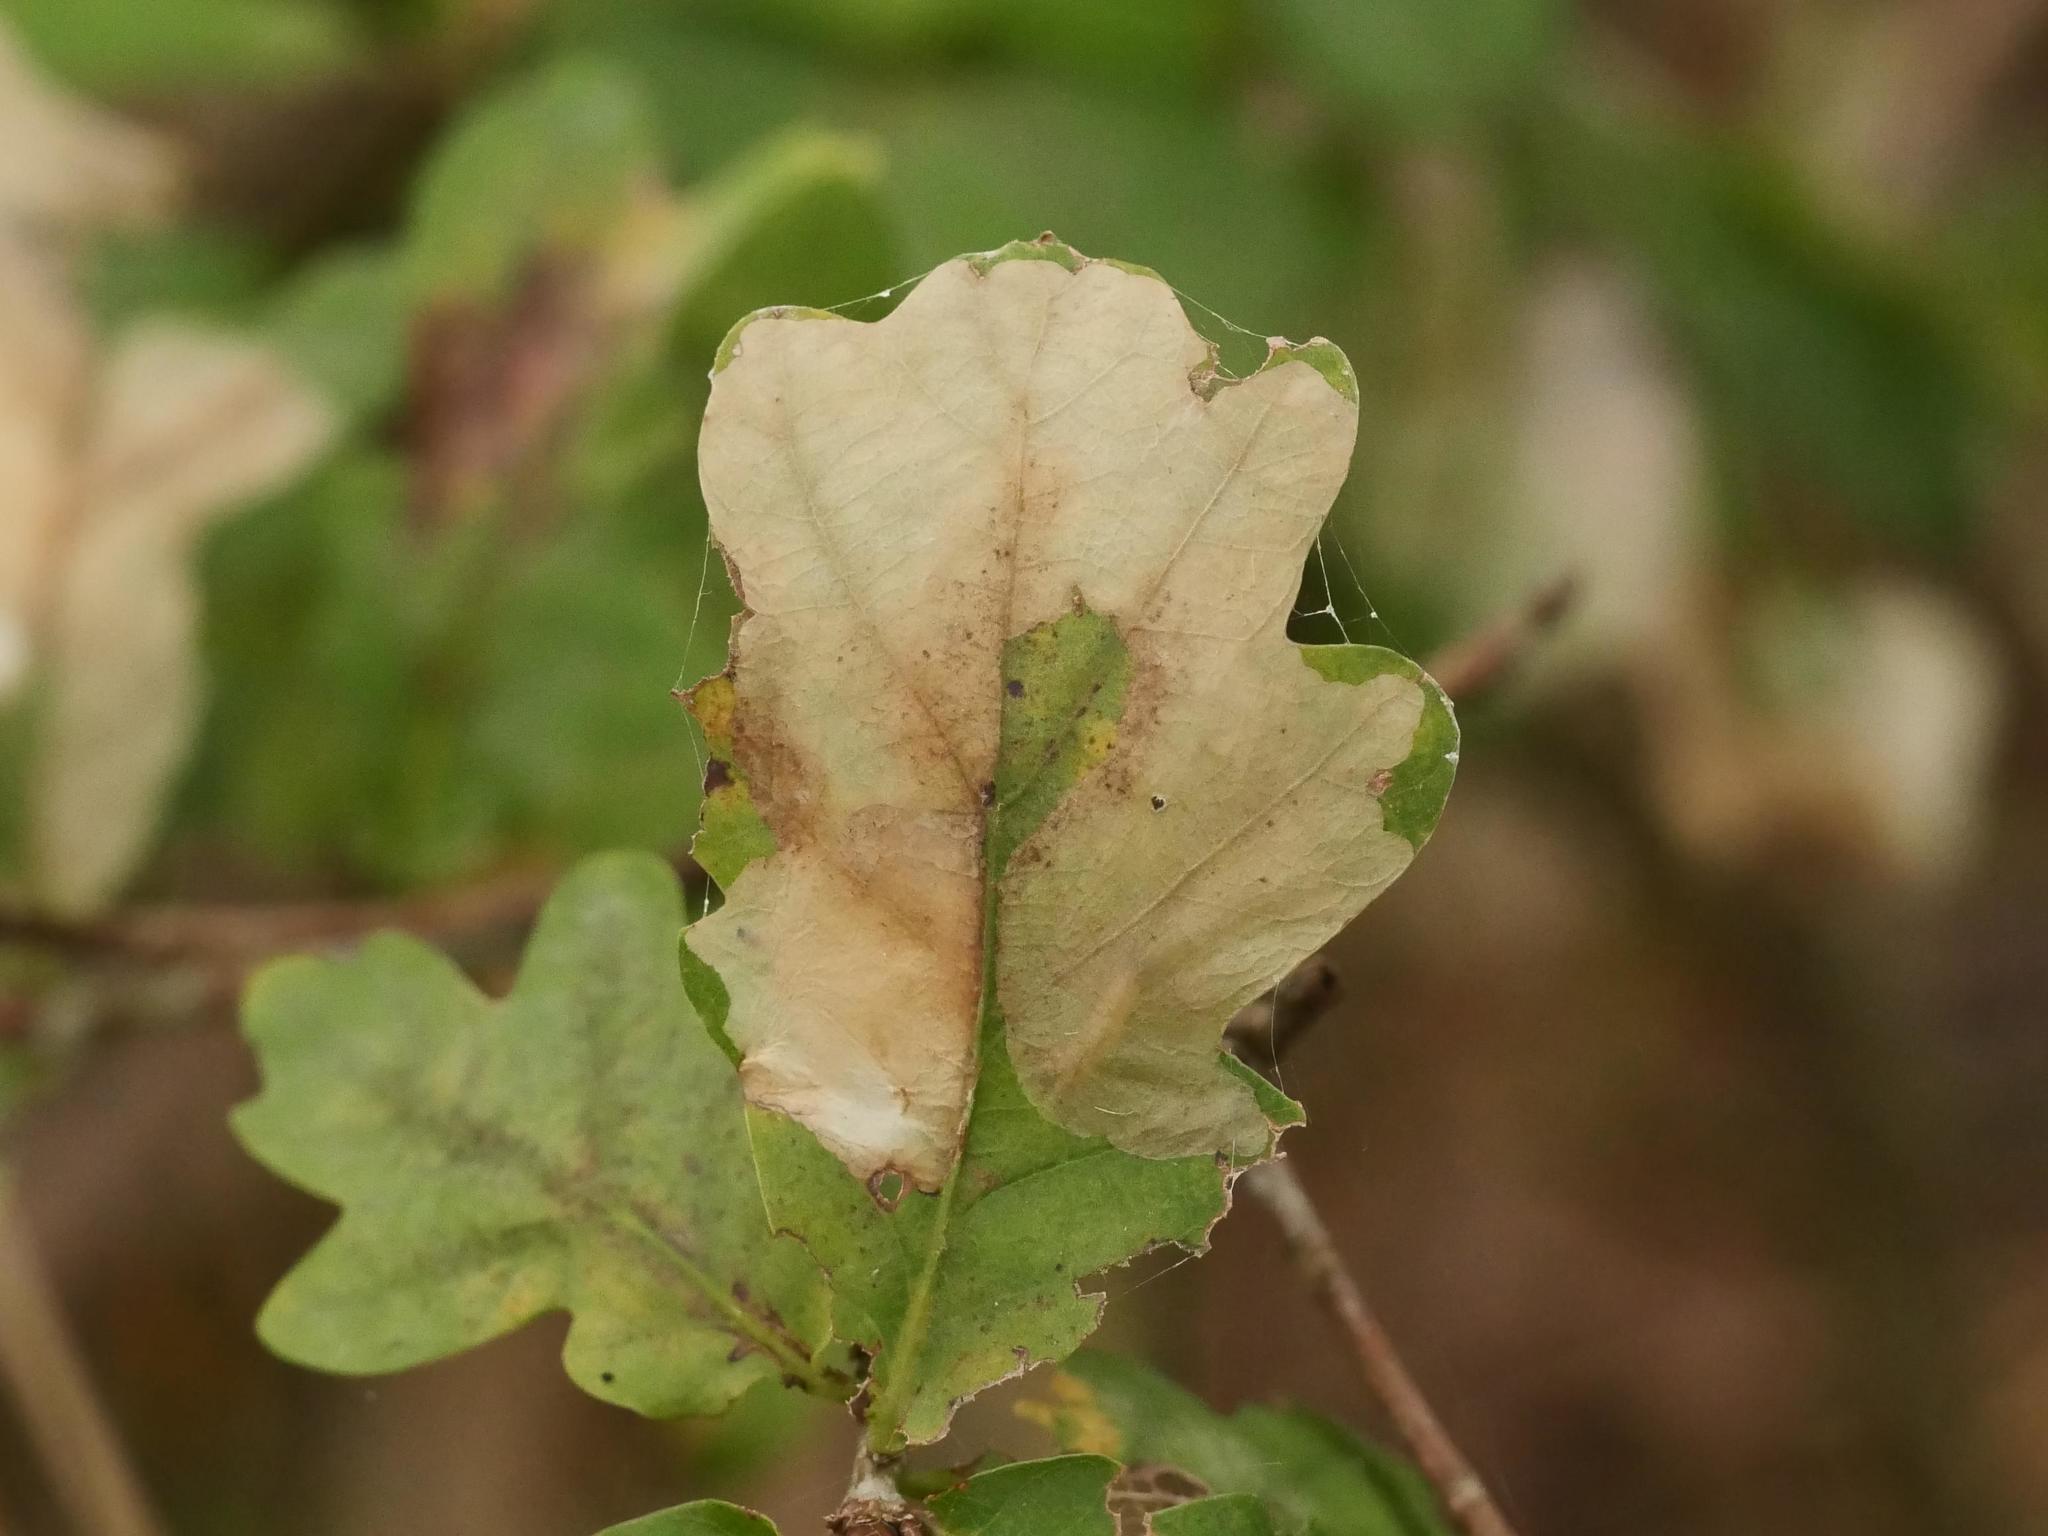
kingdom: Animalia
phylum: Arthropoda
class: Insecta
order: Lepidoptera
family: Tischeriidae
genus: Tischeria
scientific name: Tischeria ekebladella
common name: Oak carl
